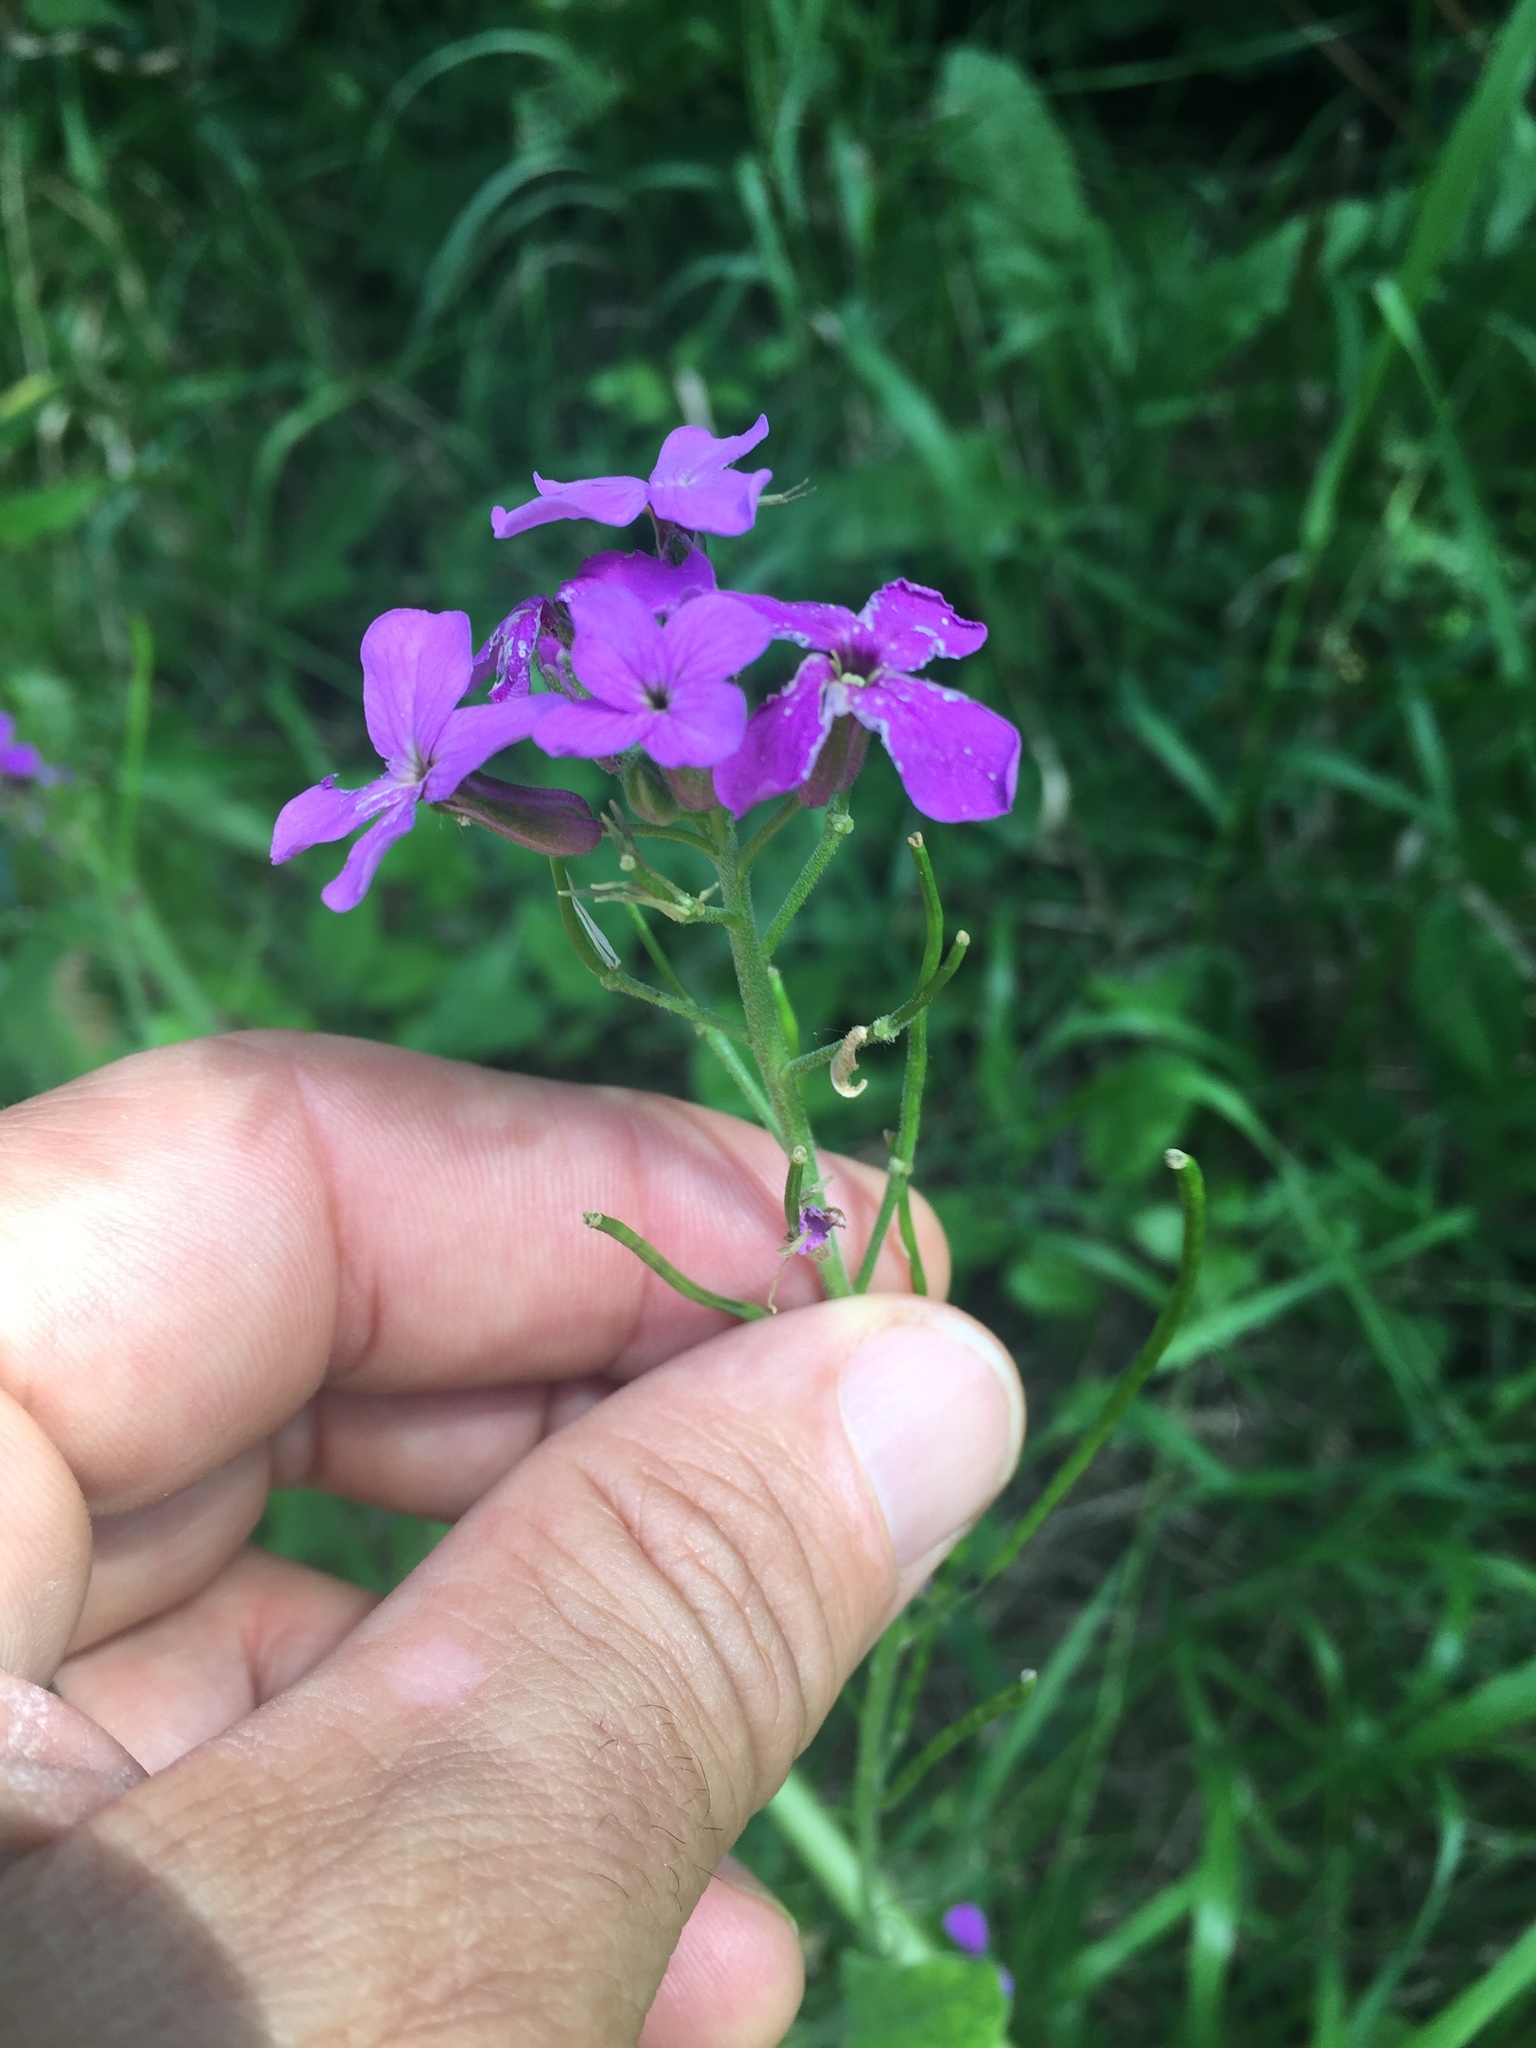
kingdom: Plantae
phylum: Tracheophyta
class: Magnoliopsida
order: Brassicales
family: Brassicaceae
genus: Hesperis
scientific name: Hesperis matronalis
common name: Dame's-violet
